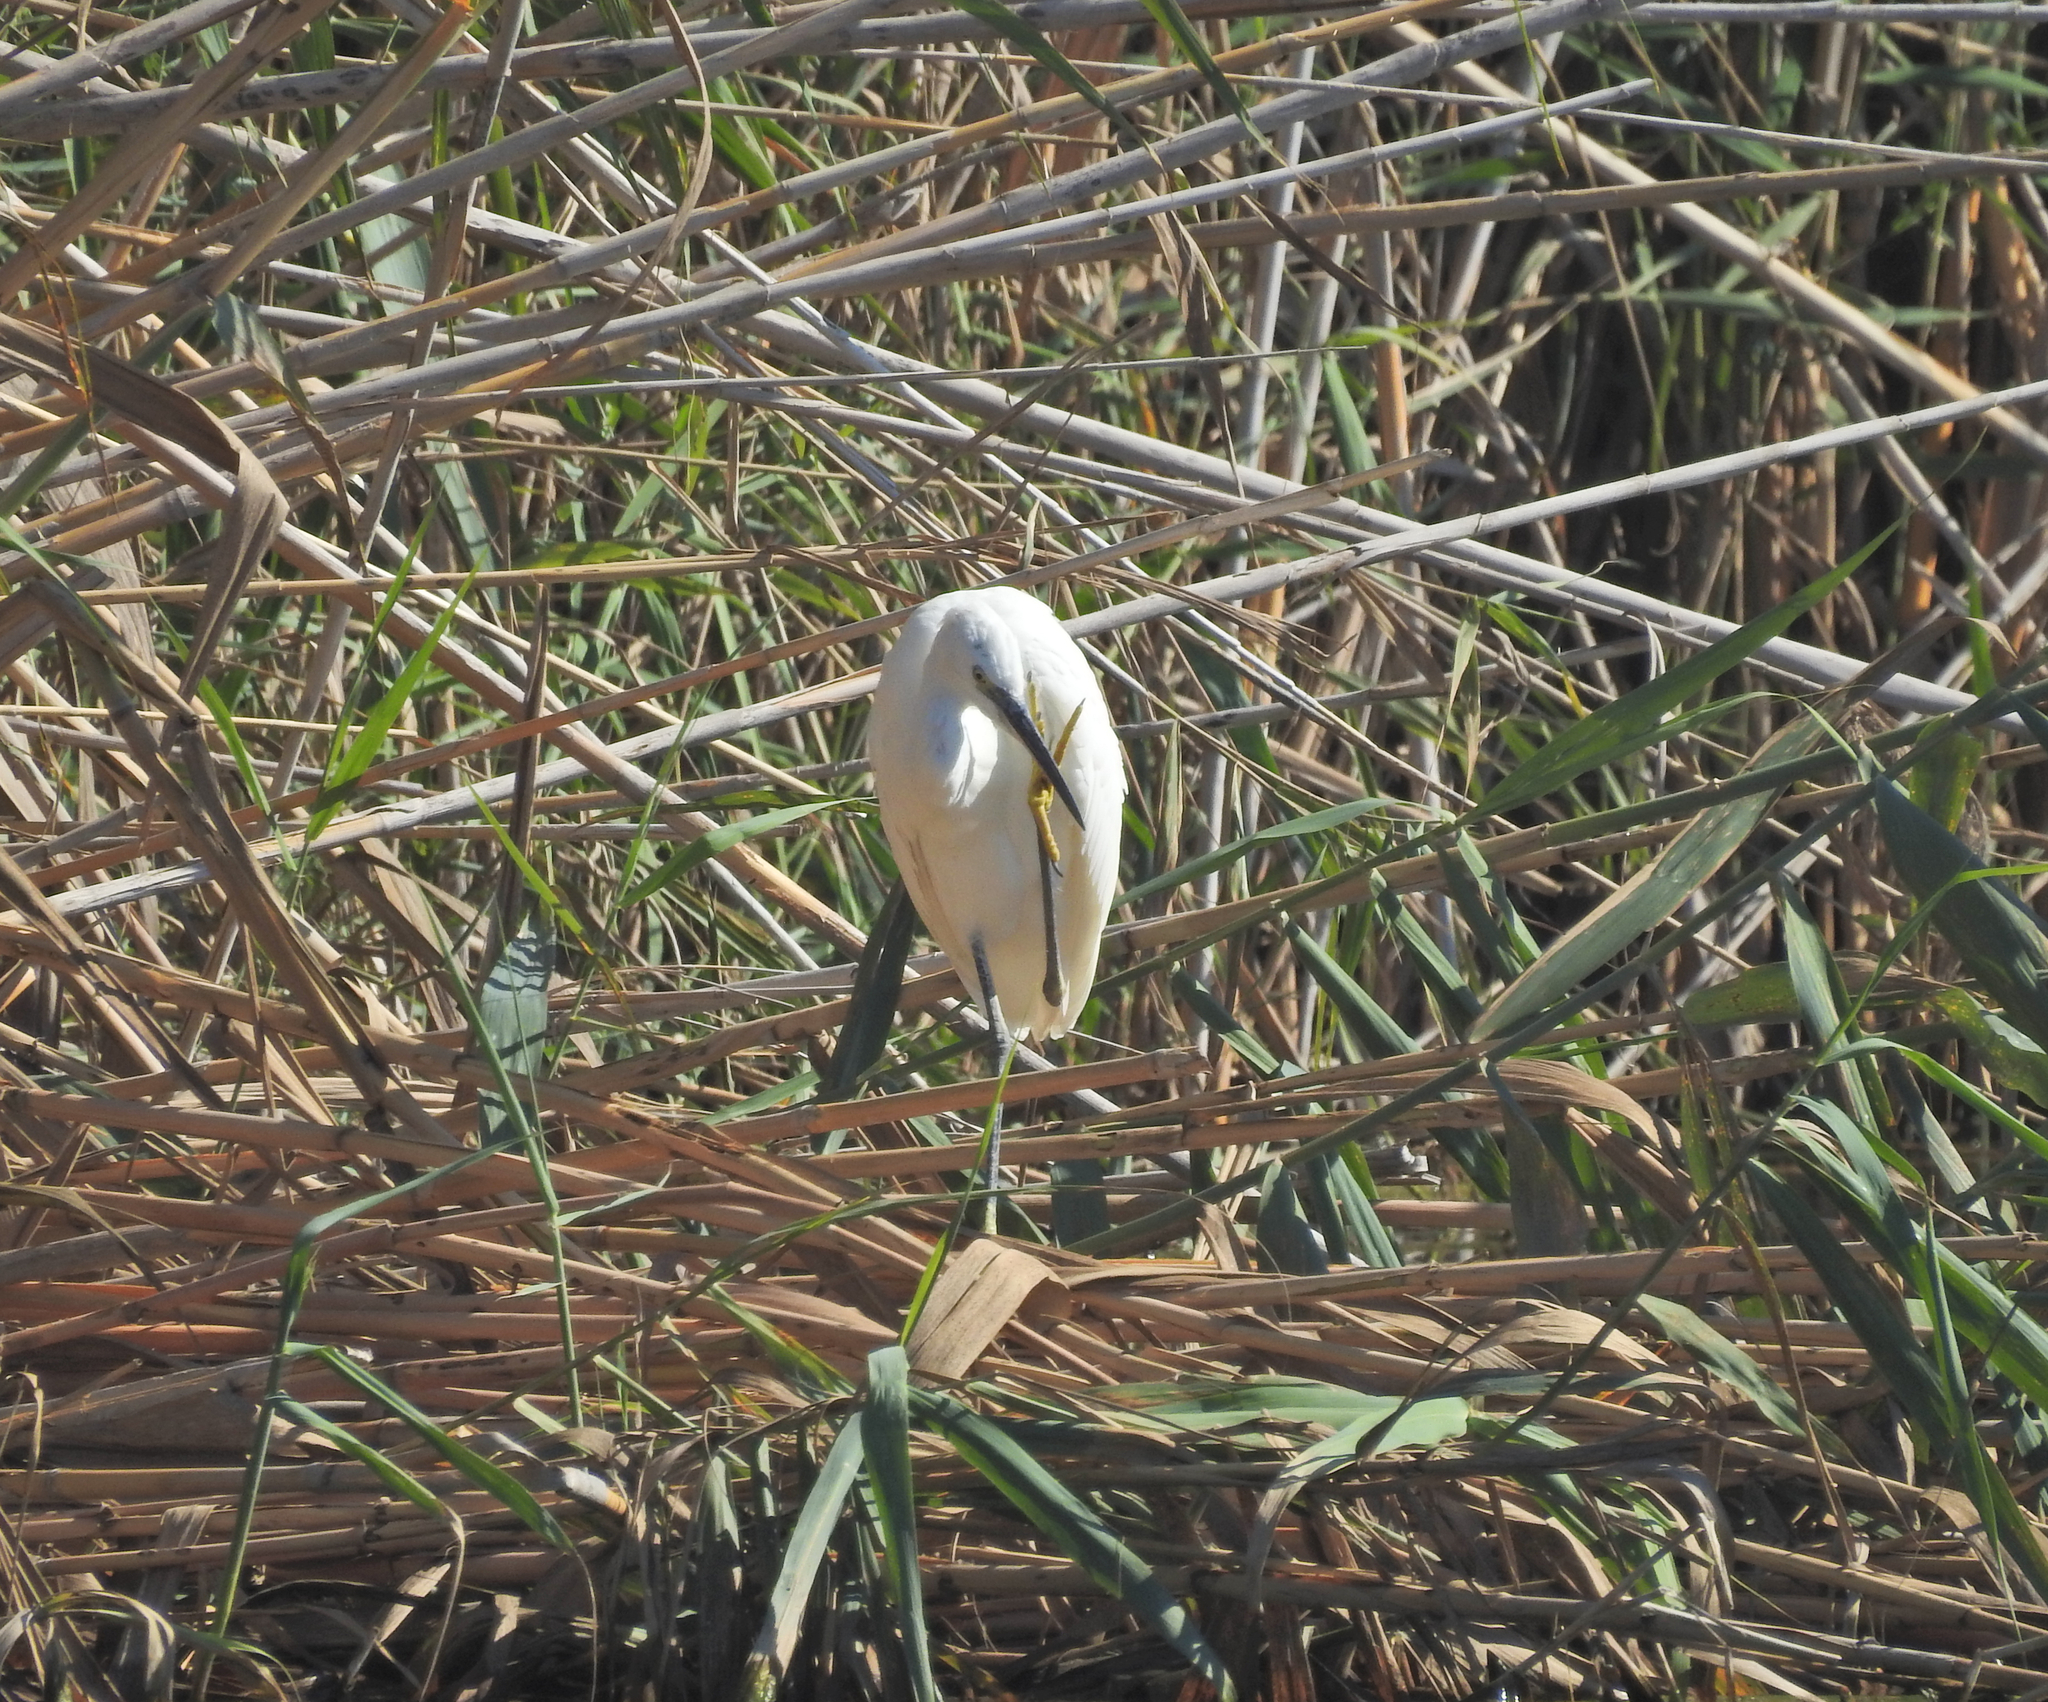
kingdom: Animalia
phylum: Chordata
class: Aves
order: Pelecaniformes
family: Ardeidae
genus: Egretta
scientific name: Egretta garzetta
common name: Little egret
